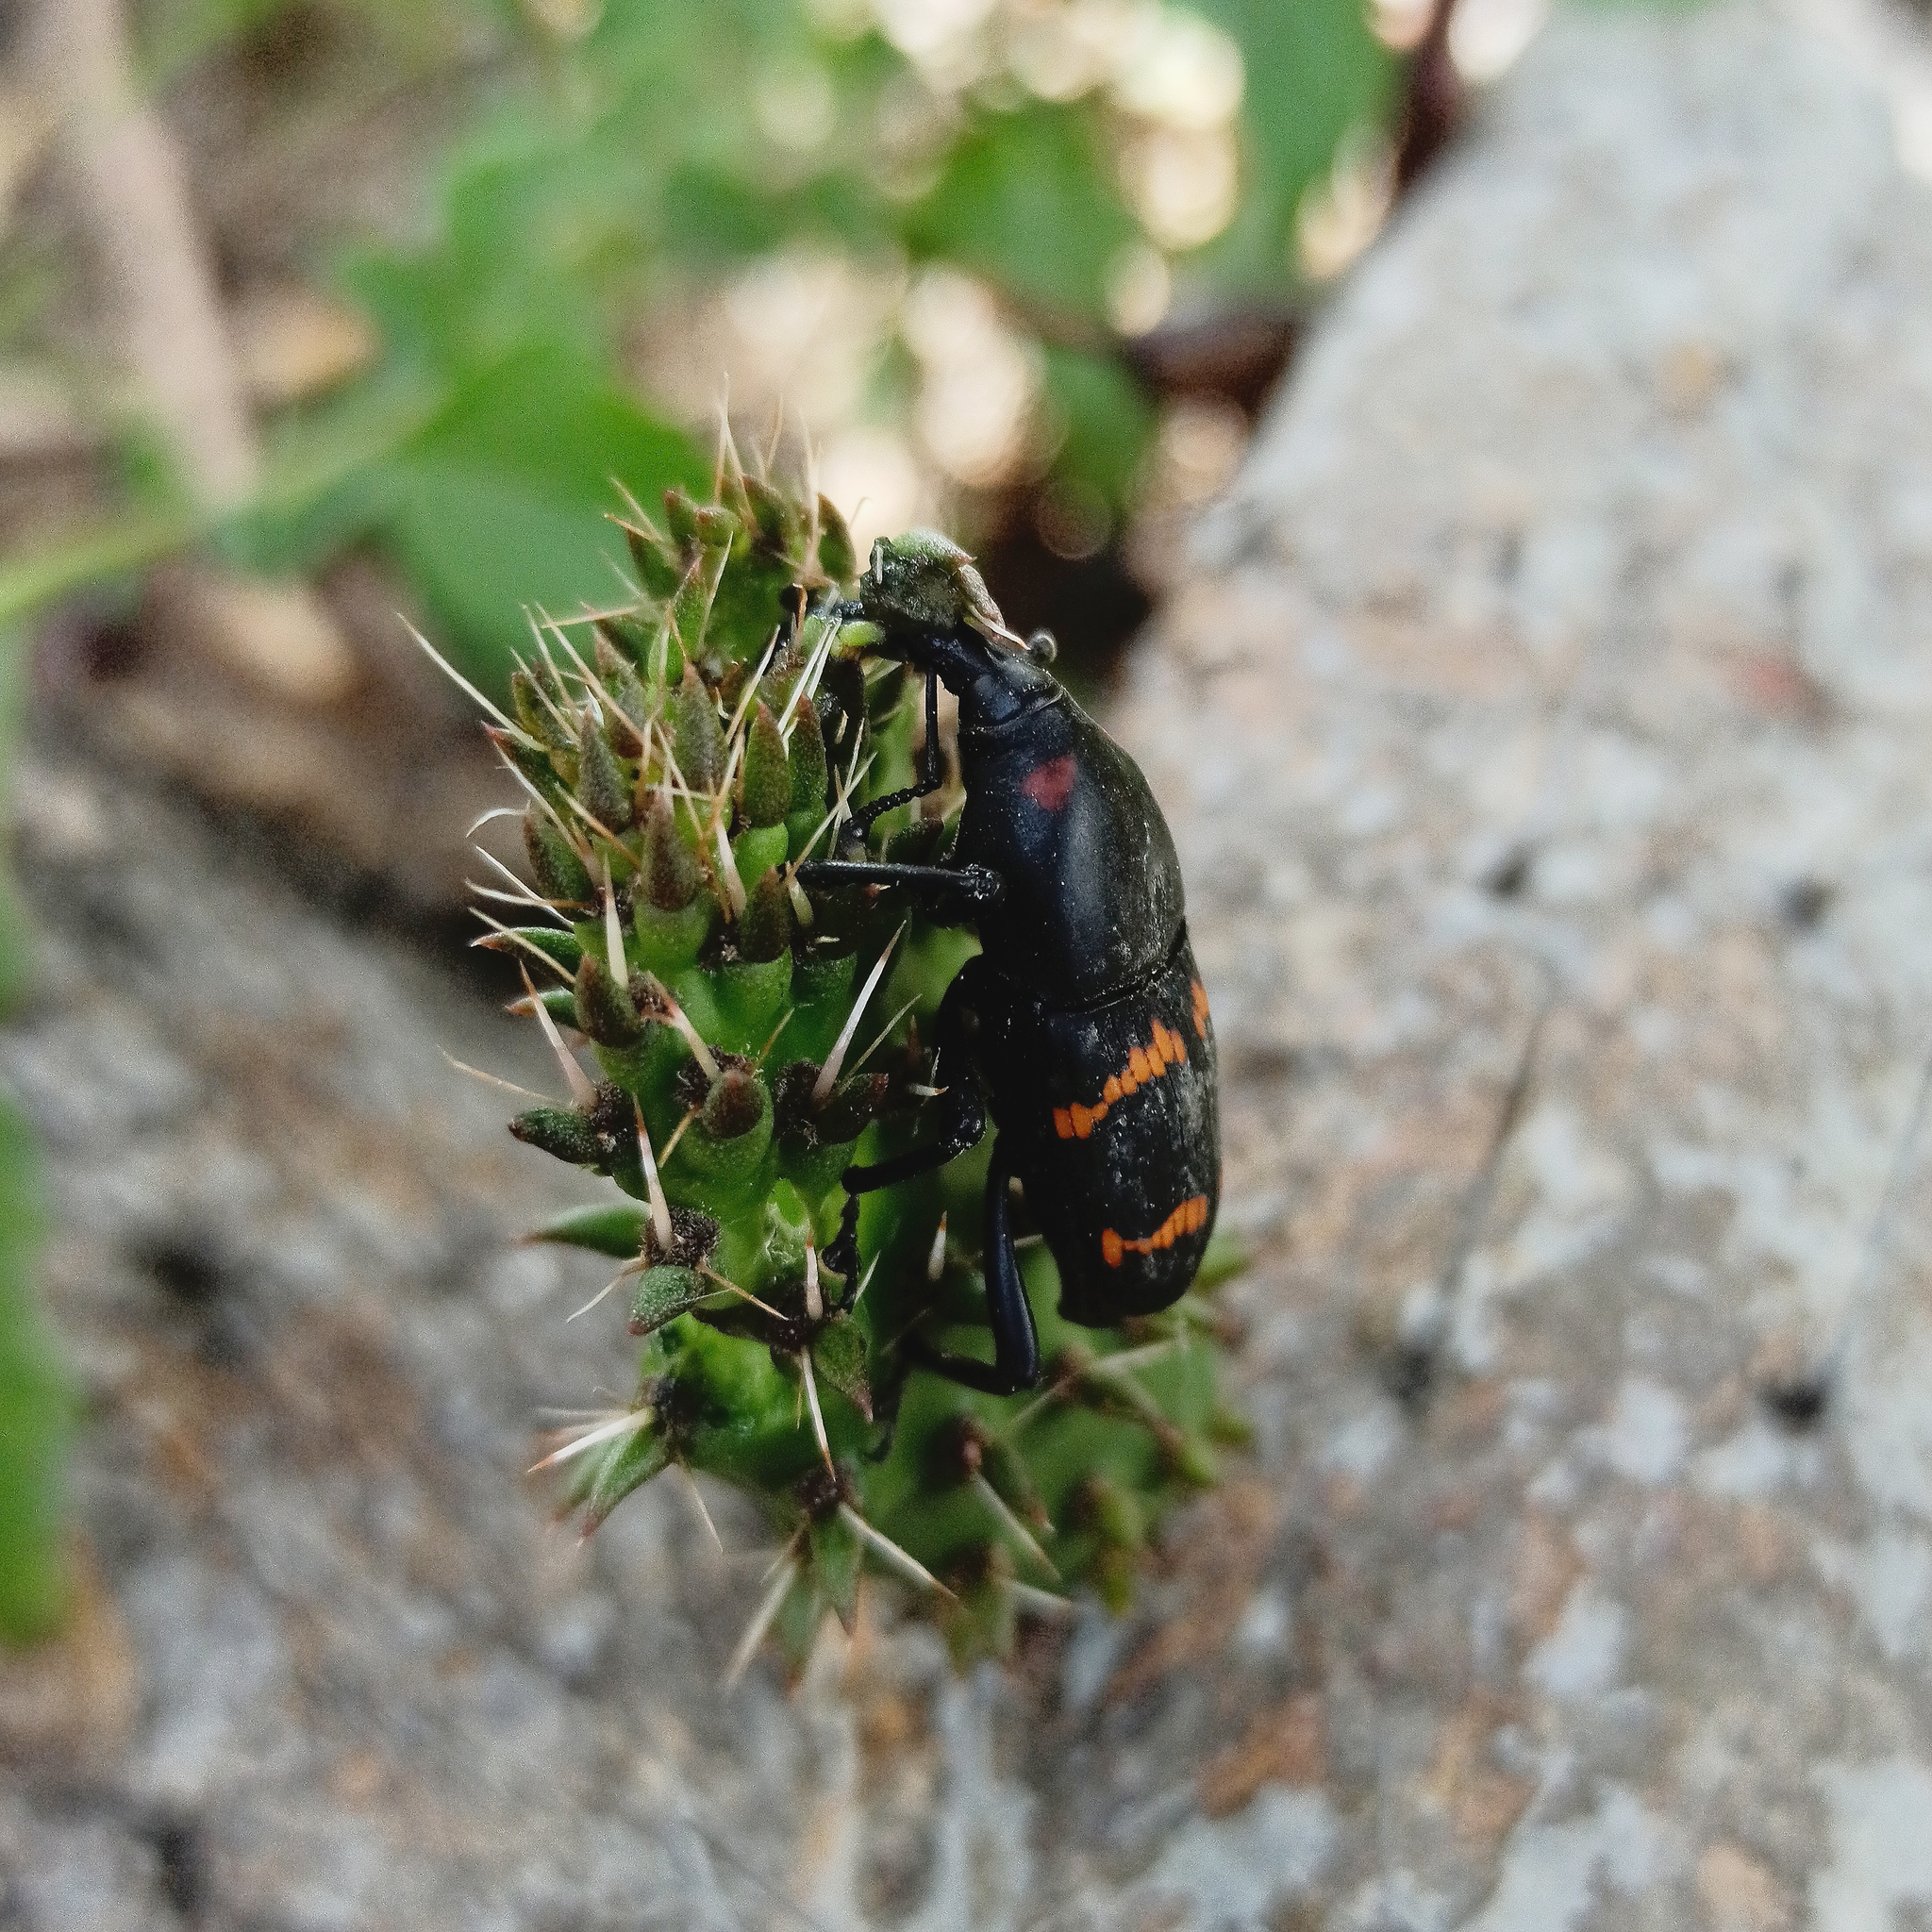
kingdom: Animalia
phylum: Arthropoda
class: Insecta
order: Coleoptera
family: Dryophthoridae
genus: Cactophagus
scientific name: Cactophagus spinolae
